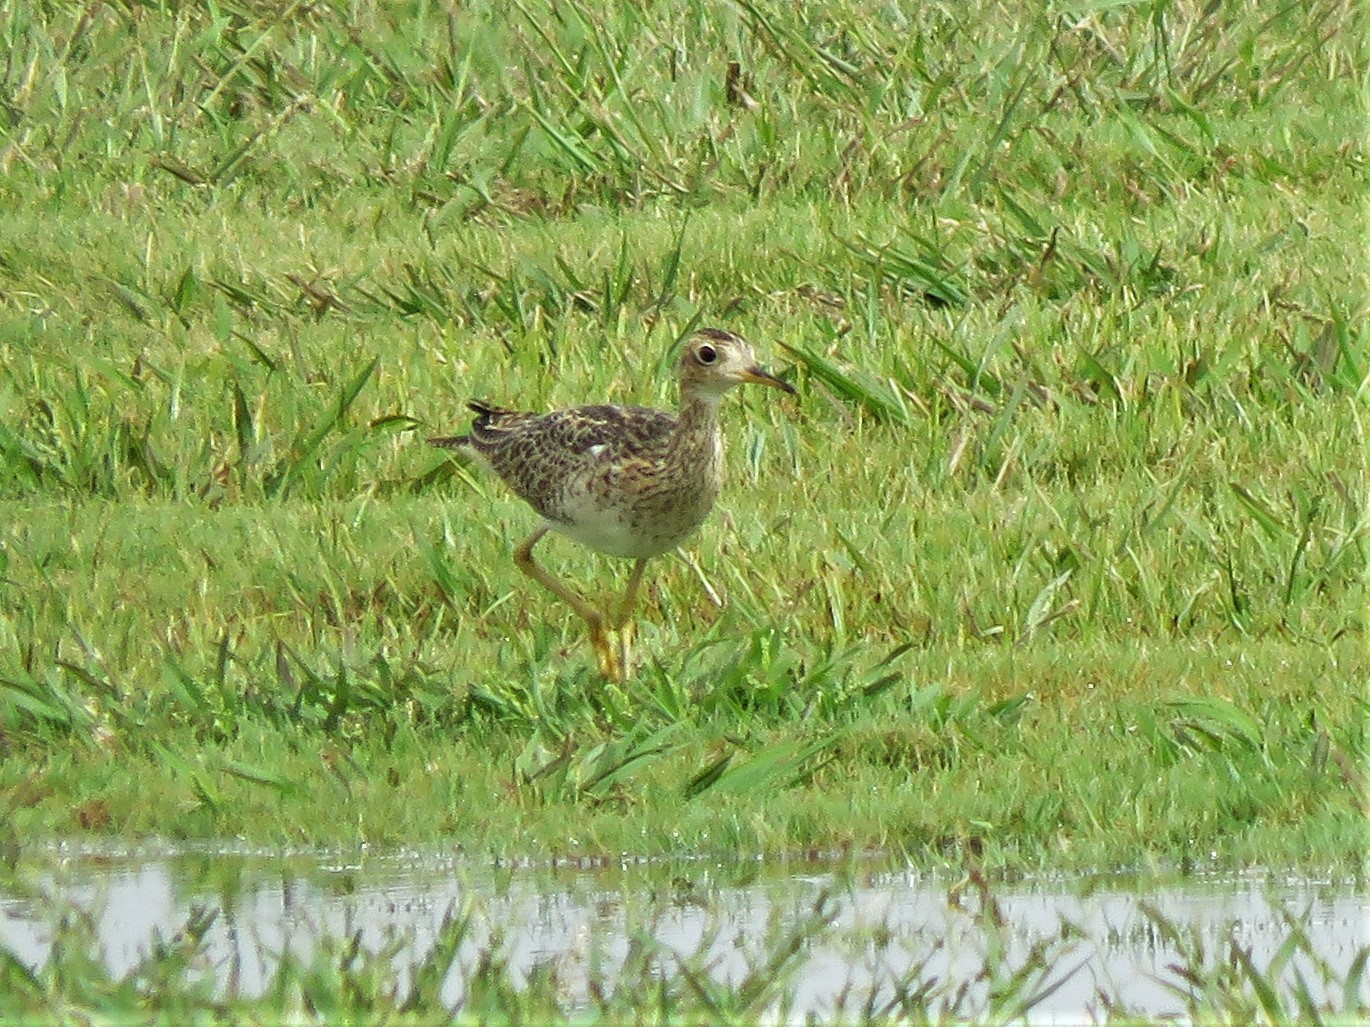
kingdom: Animalia
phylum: Chordata
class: Aves
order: Charadriiformes
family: Scolopacidae
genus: Bartramia
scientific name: Bartramia longicauda
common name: Upland sandpiper
